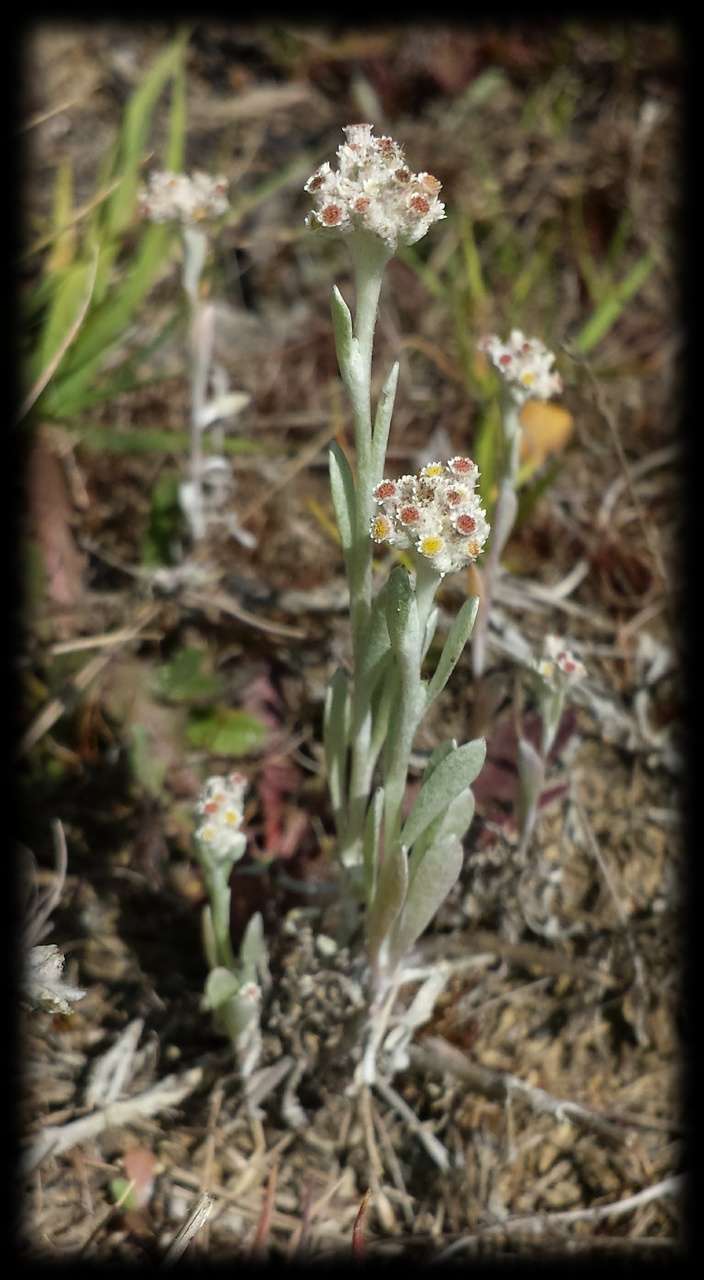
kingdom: Plantae
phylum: Tracheophyta
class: Magnoliopsida
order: Asterales
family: Asteraceae
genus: Vellereophyton
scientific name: Vellereophyton dealbatum
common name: White-cudweed
